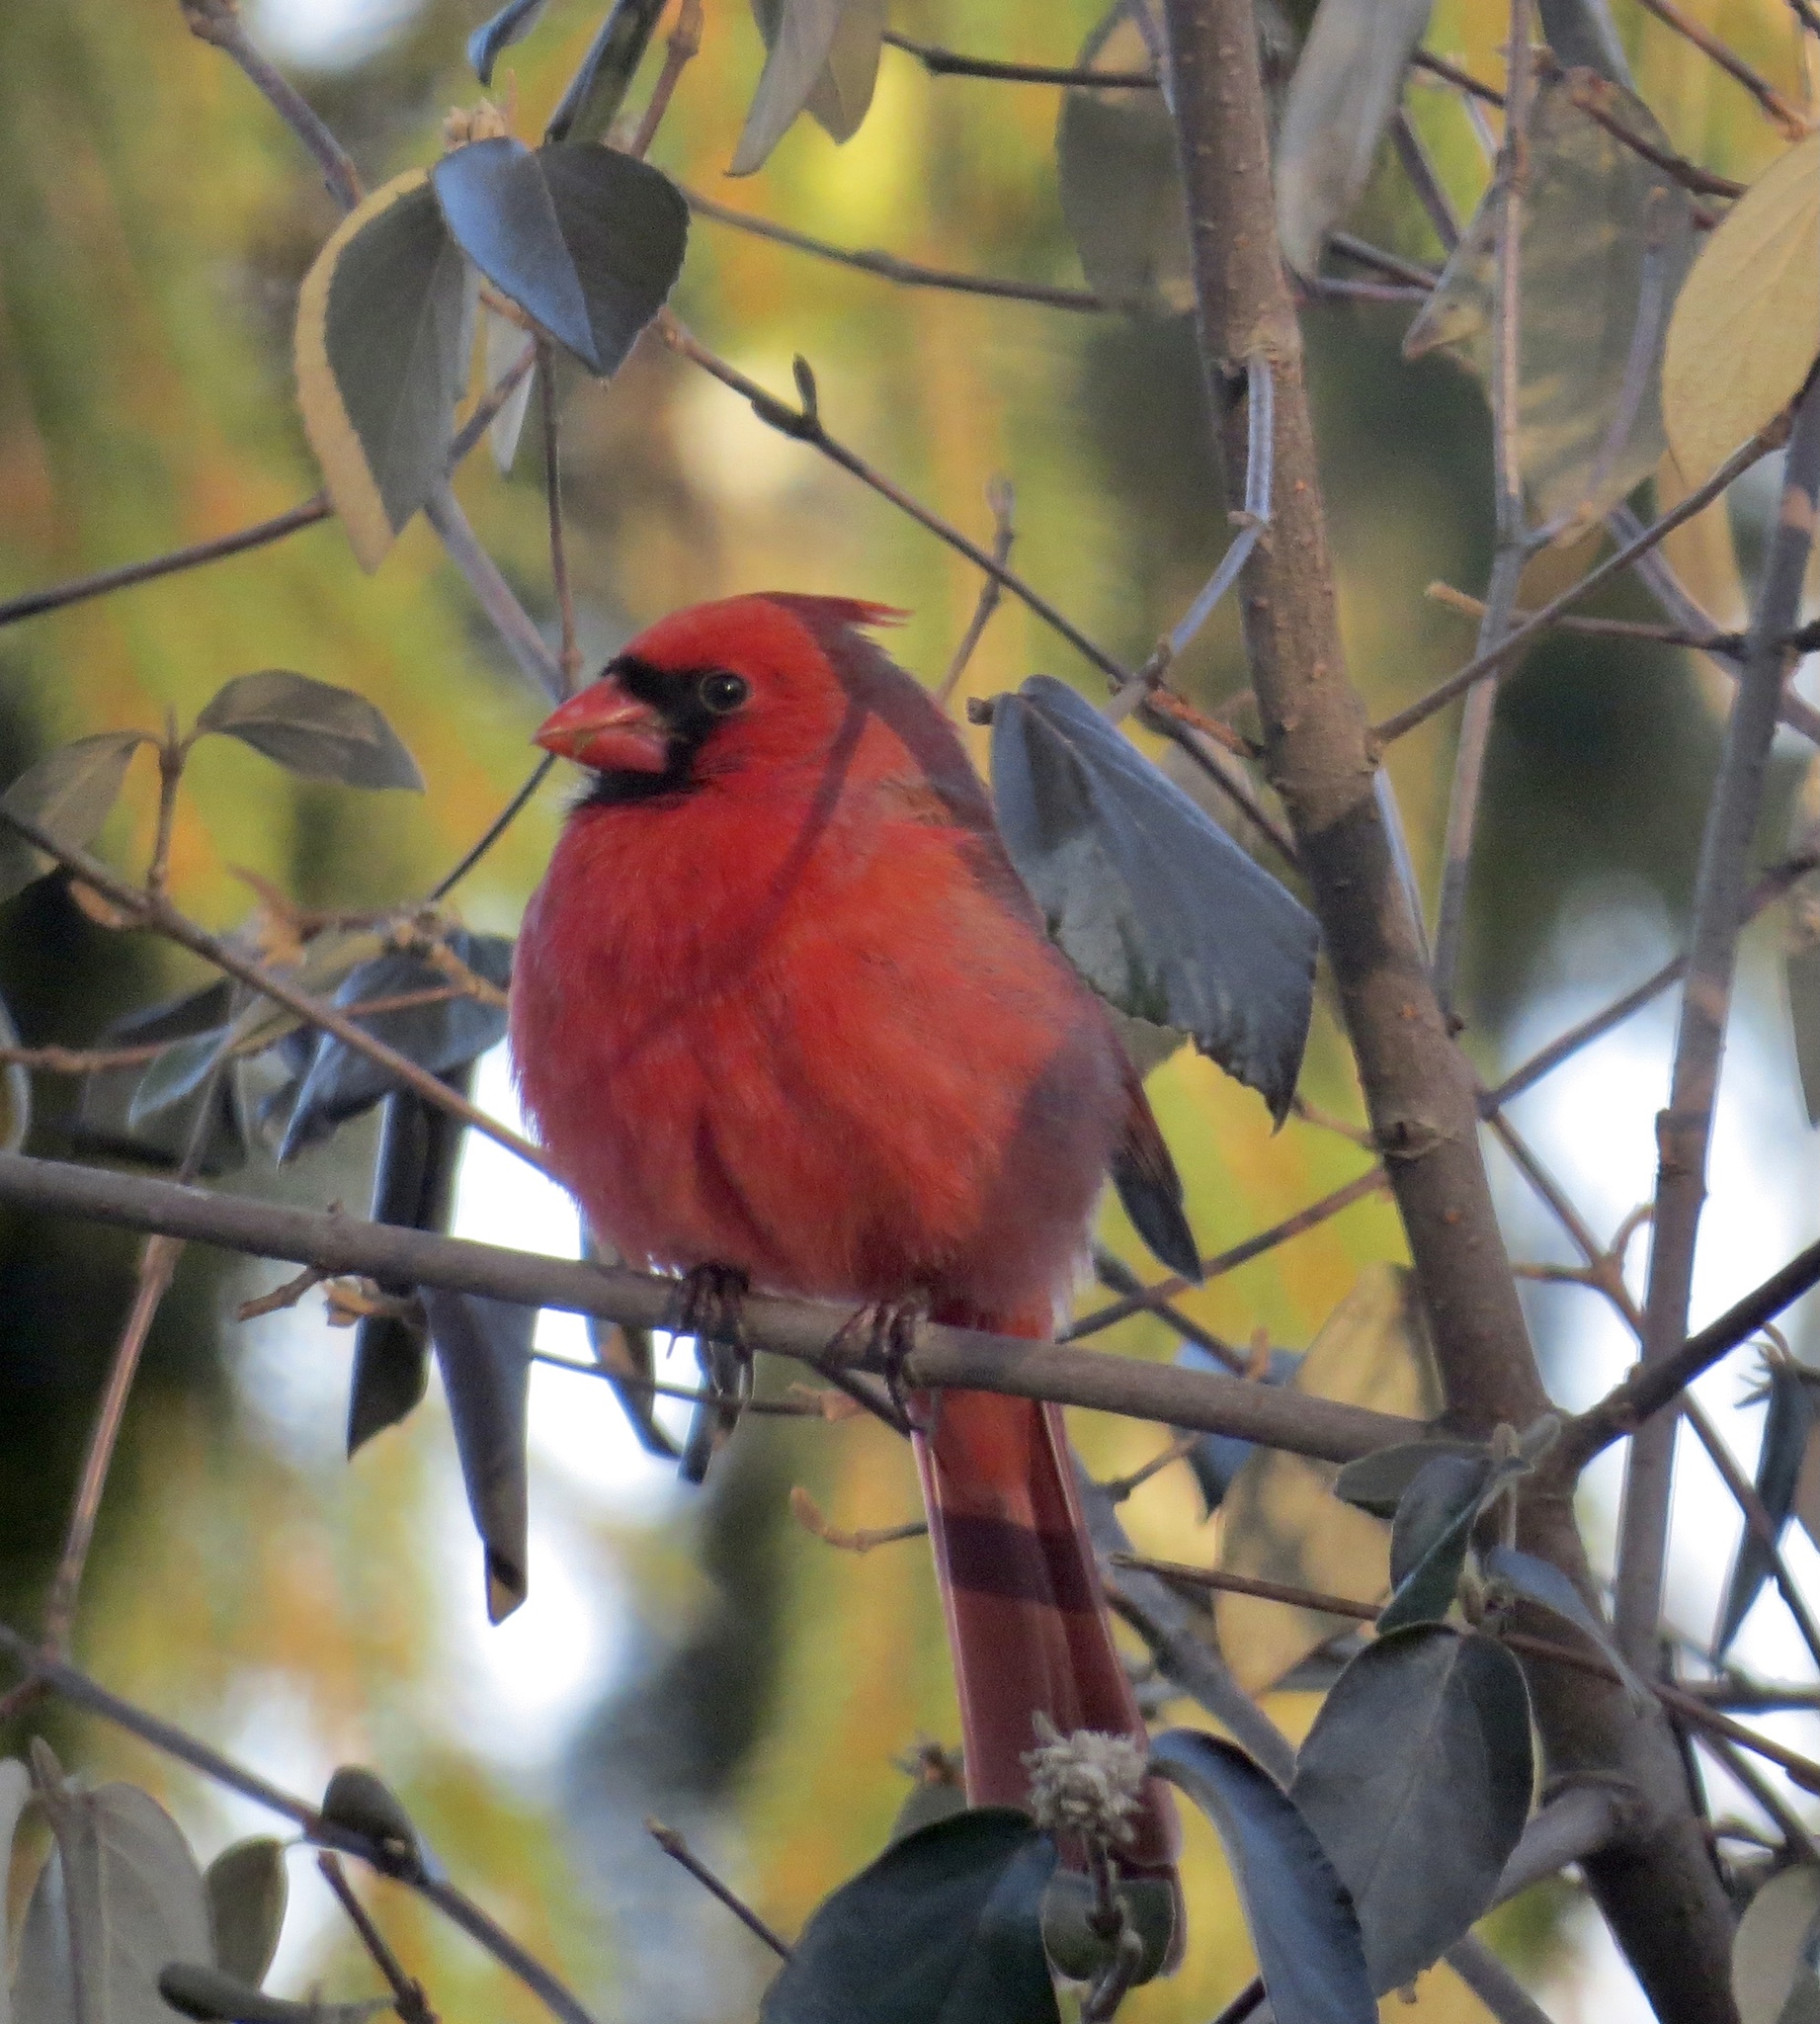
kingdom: Animalia
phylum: Chordata
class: Aves
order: Passeriformes
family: Cardinalidae
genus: Cardinalis
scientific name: Cardinalis cardinalis
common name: Northern cardinal
